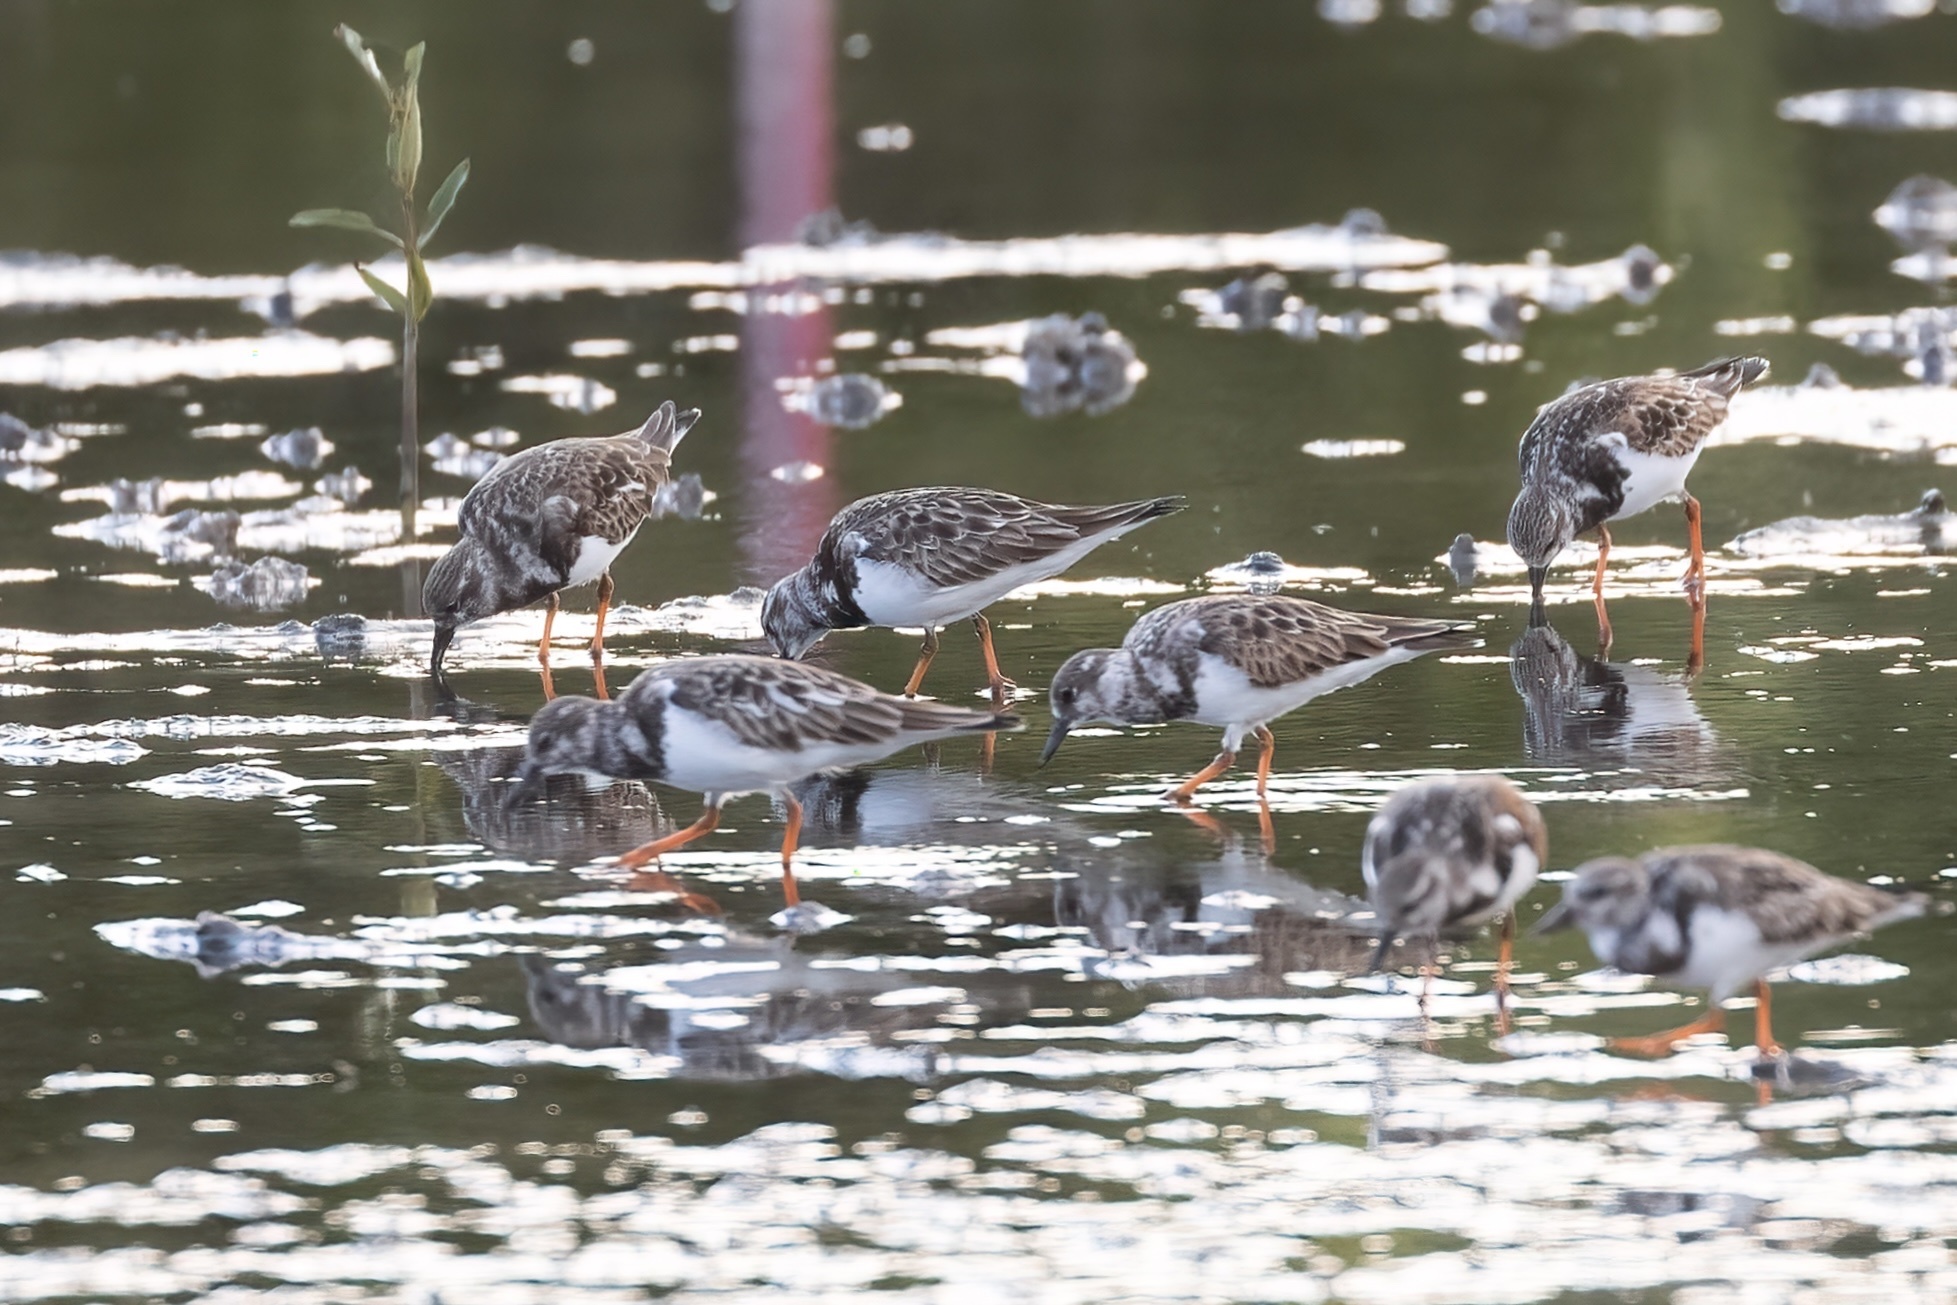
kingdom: Animalia
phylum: Chordata
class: Aves
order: Charadriiformes
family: Scolopacidae
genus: Arenaria
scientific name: Arenaria interpres
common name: Ruddy turnstone
